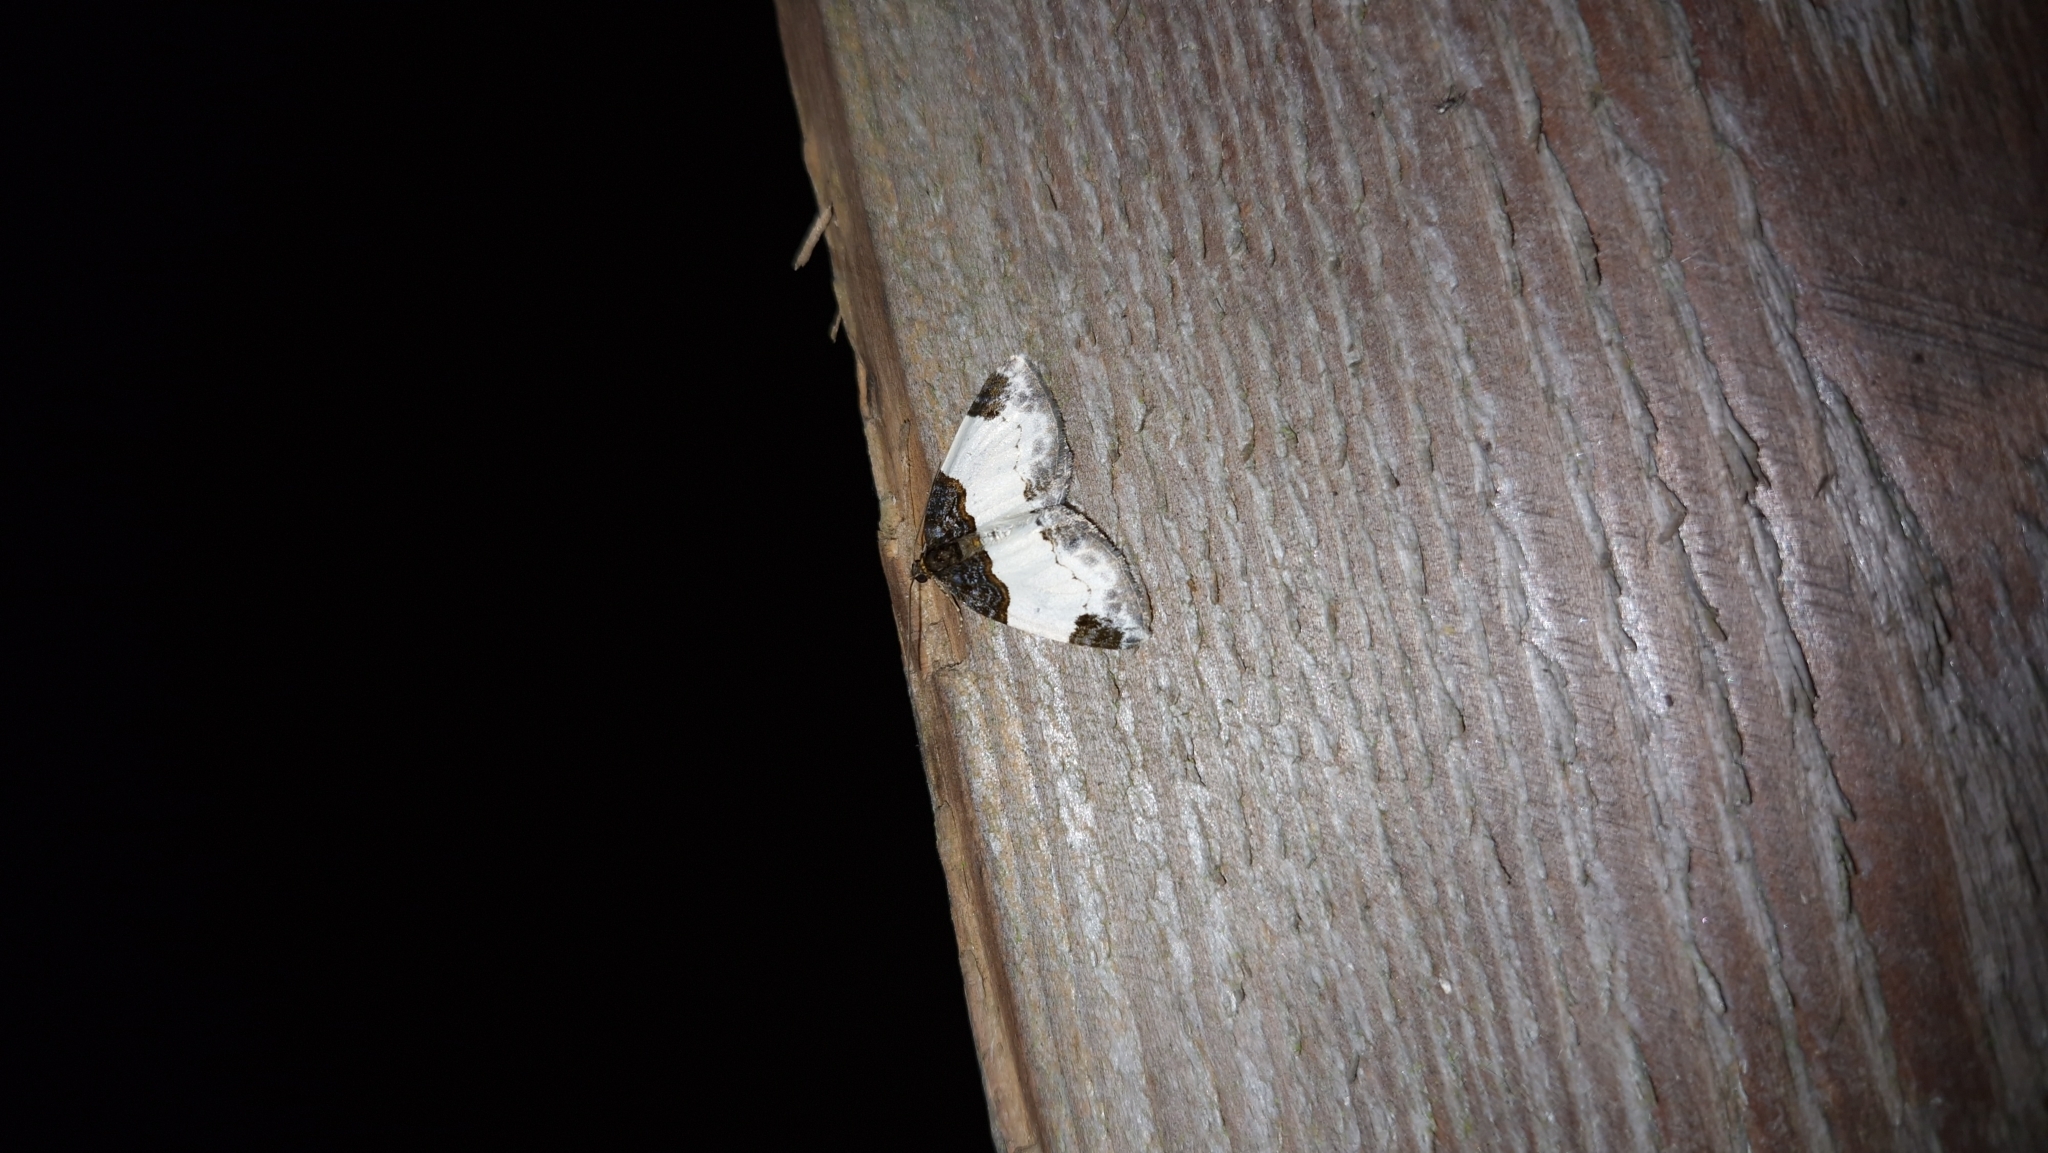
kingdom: Animalia
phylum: Arthropoda
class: Insecta
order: Lepidoptera
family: Geometridae
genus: Mesoleuca
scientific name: Mesoleuca albicillata
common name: Beautiful carpet
